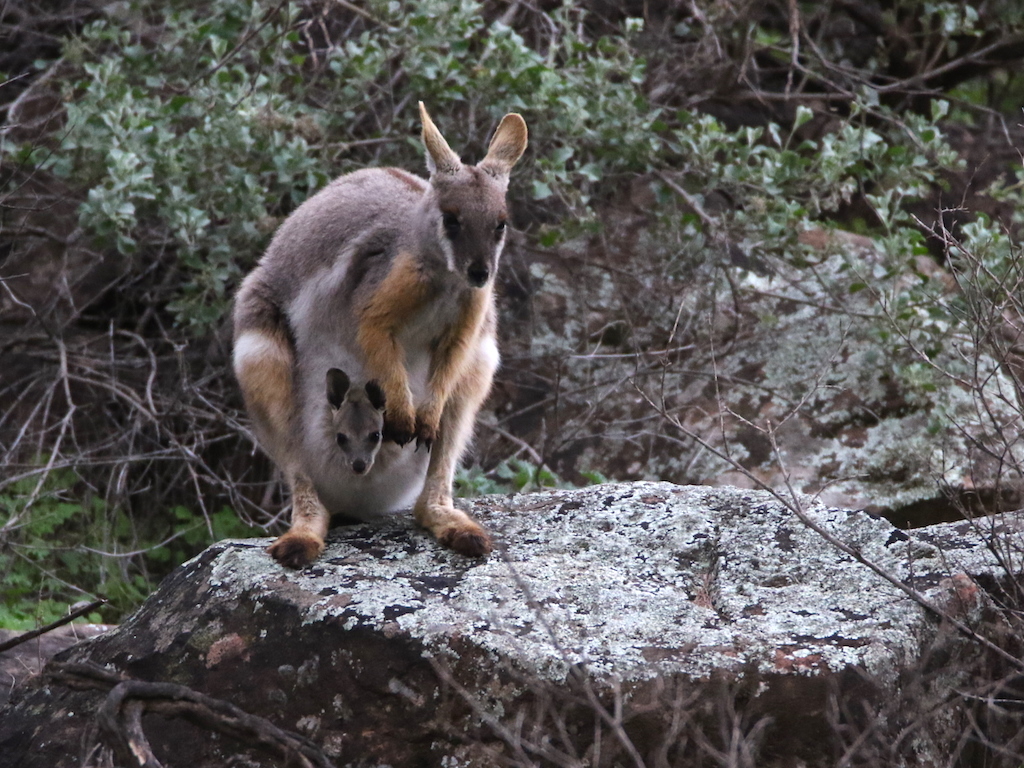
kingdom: Animalia
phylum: Chordata
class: Mammalia
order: Diprotodontia
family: Macropodidae
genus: Petrogale
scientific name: Petrogale xanthopus
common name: Yellow-footed rock-wallaby
